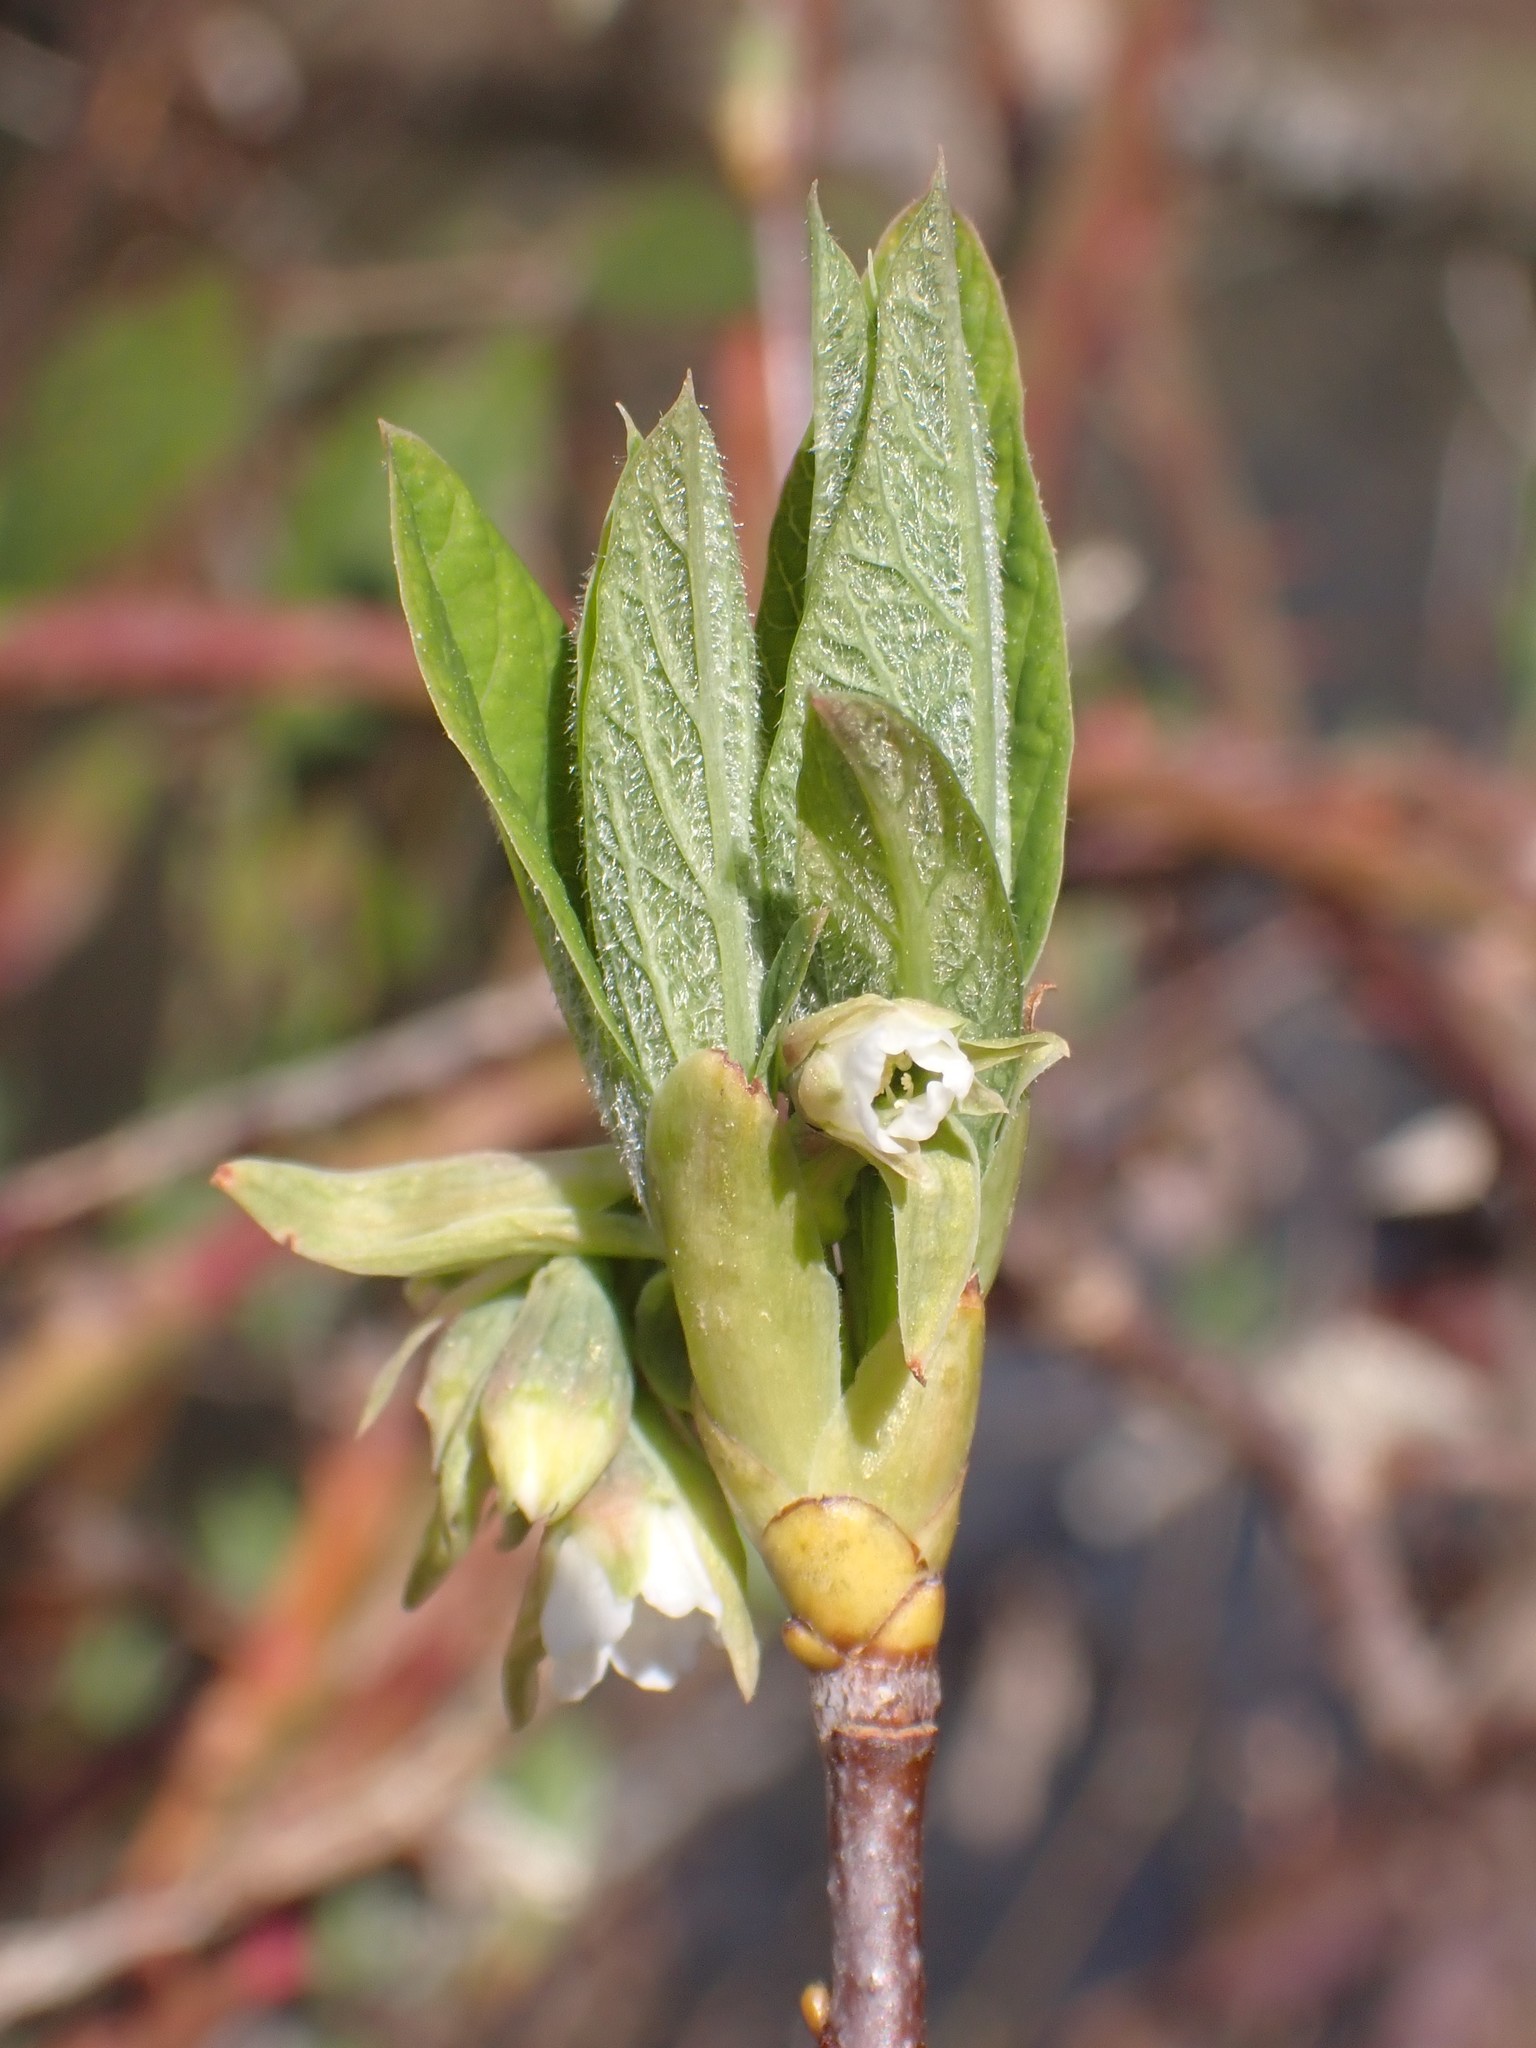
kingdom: Plantae
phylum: Tracheophyta
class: Magnoliopsida
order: Rosales
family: Rosaceae
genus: Oemleria
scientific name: Oemleria cerasiformis
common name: Osoberry
